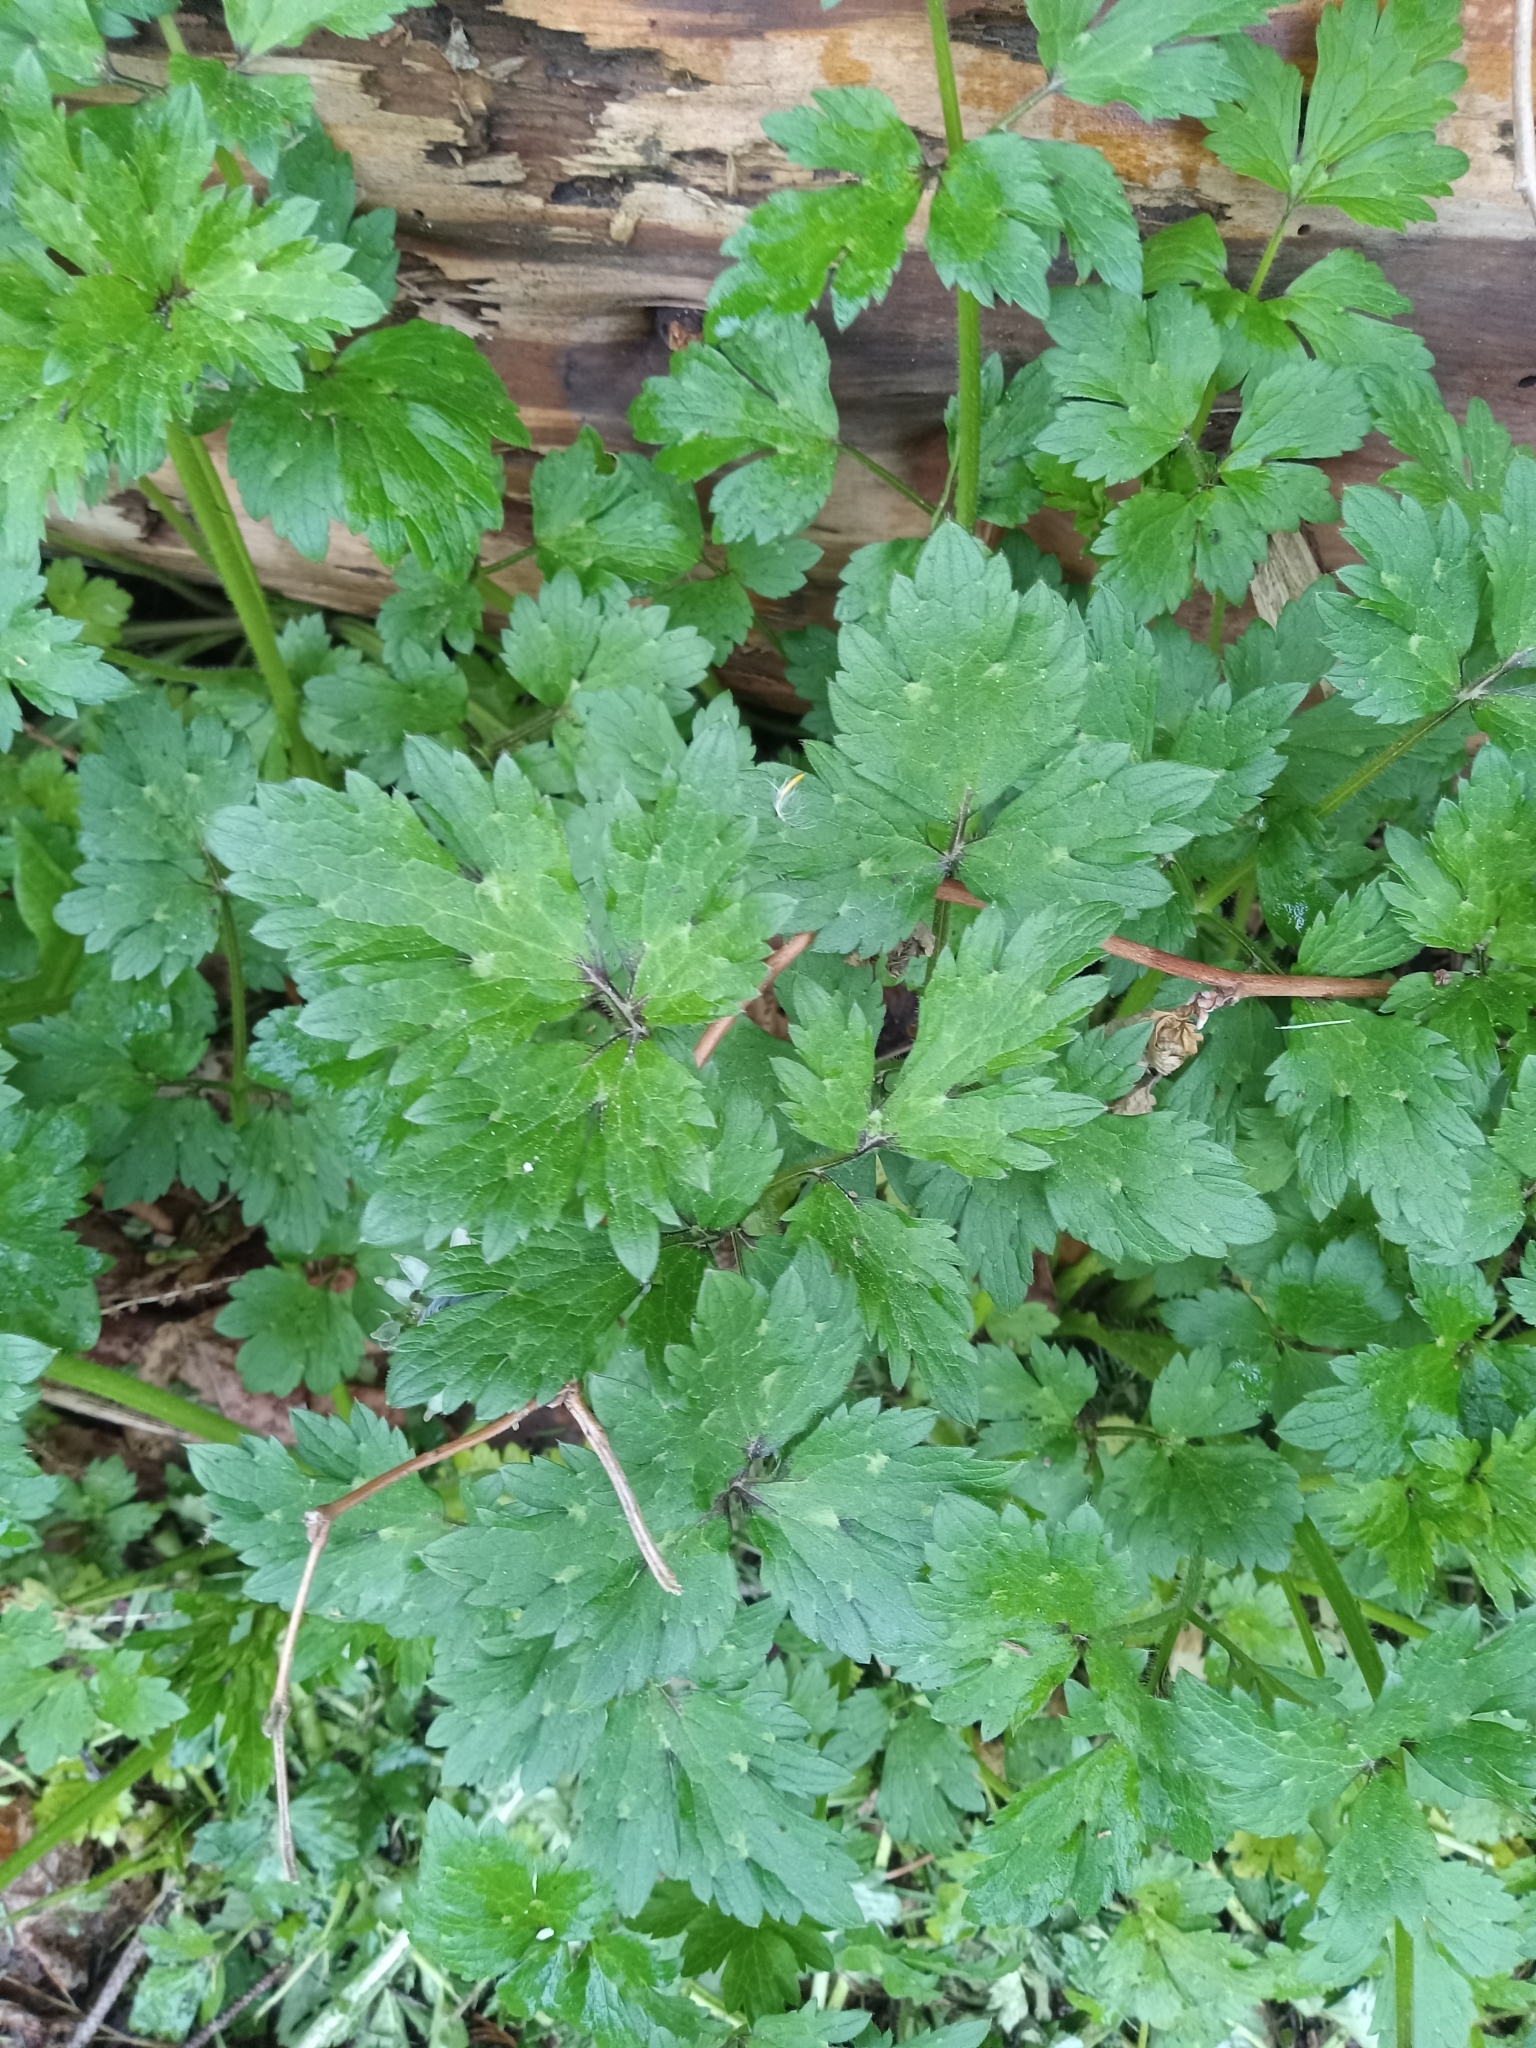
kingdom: Plantae
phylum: Tracheophyta
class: Magnoliopsida
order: Ranunculales
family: Ranunculaceae
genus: Ranunculus
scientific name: Ranunculus repens
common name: Creeping buttercup
